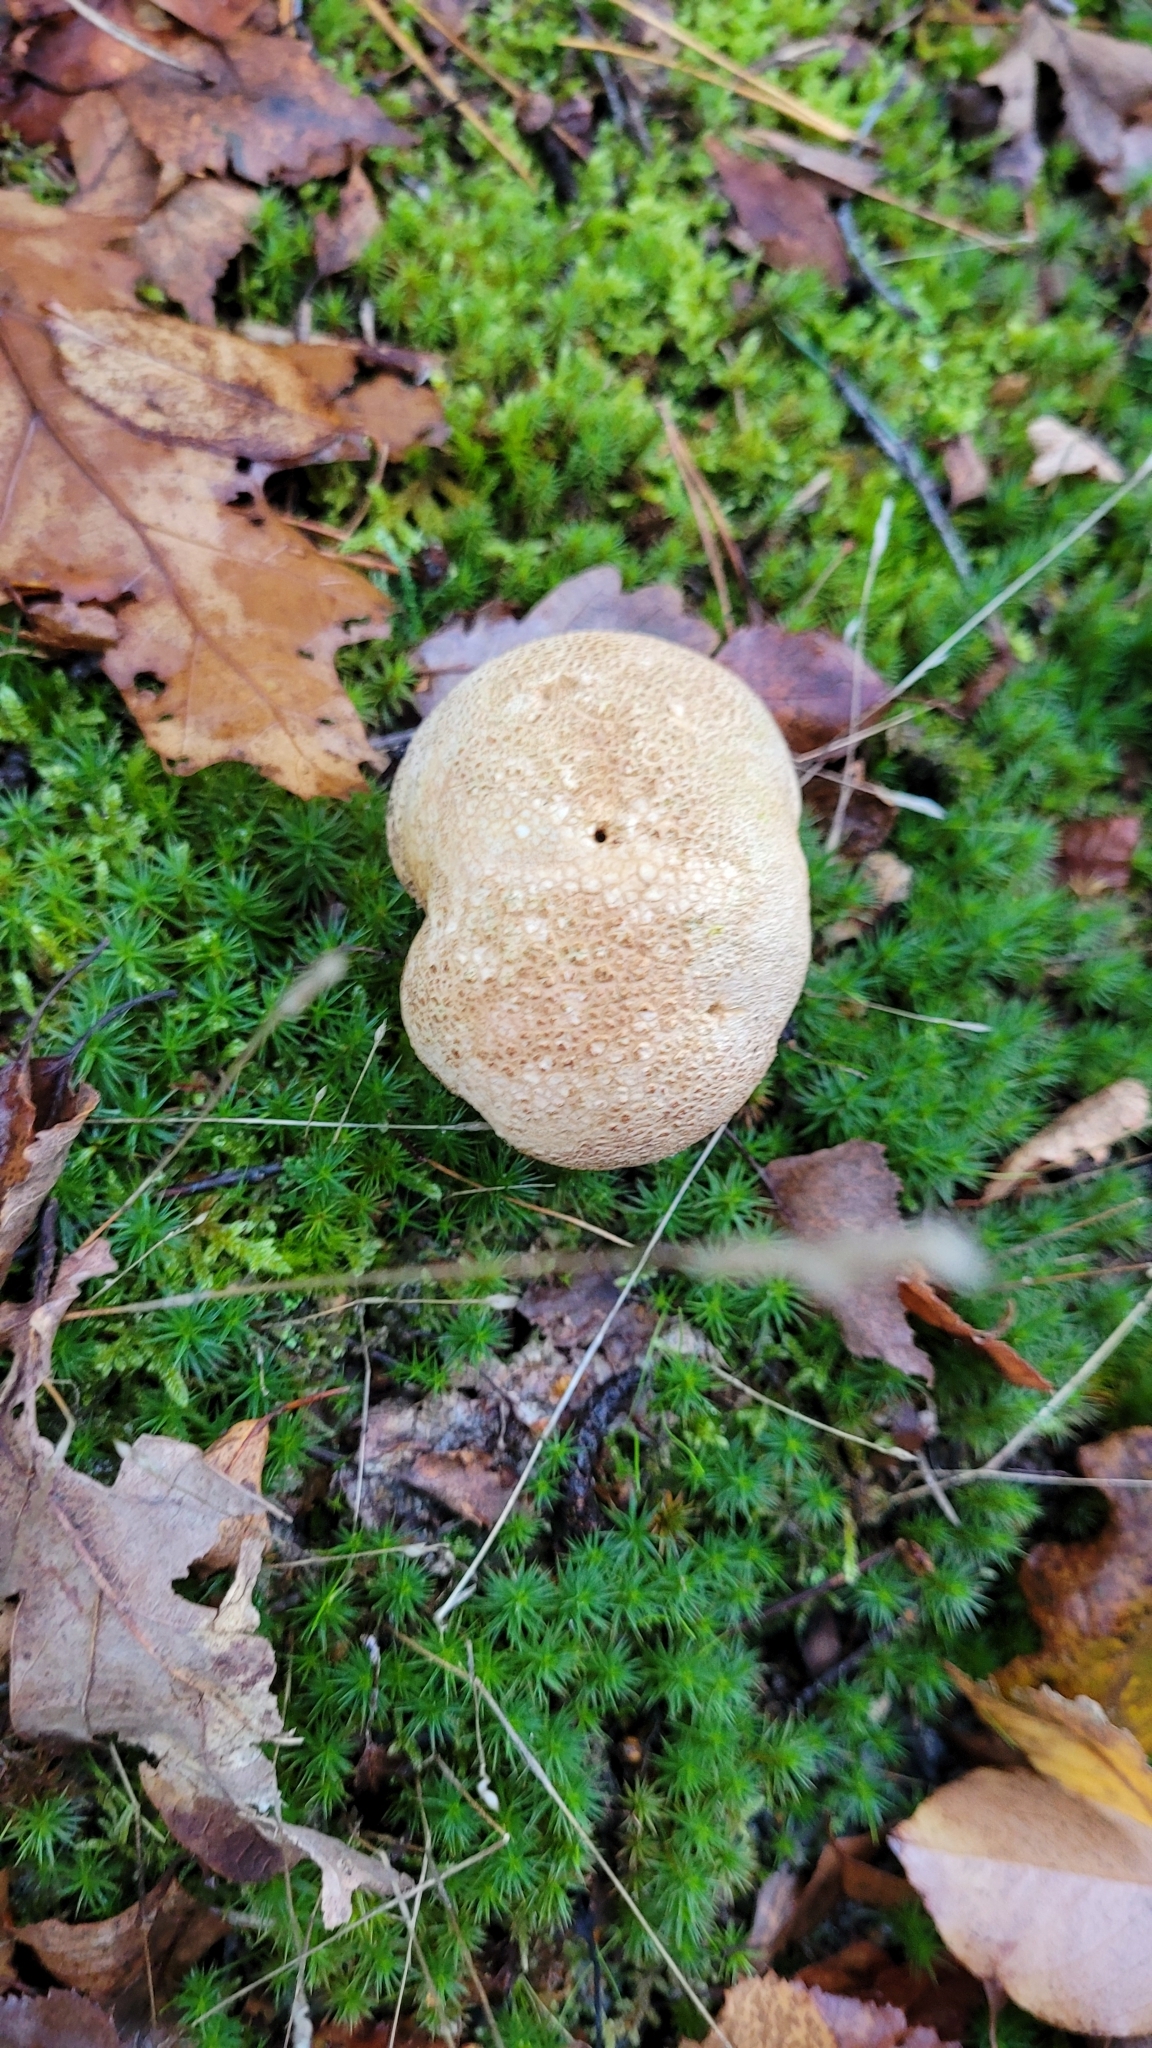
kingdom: Fungi
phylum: Basidiomycota
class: Agaricomycetes
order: Boletales
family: Sclerodermataceae
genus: Scleroderma
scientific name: Scleroderma citrinum
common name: Common earthball
